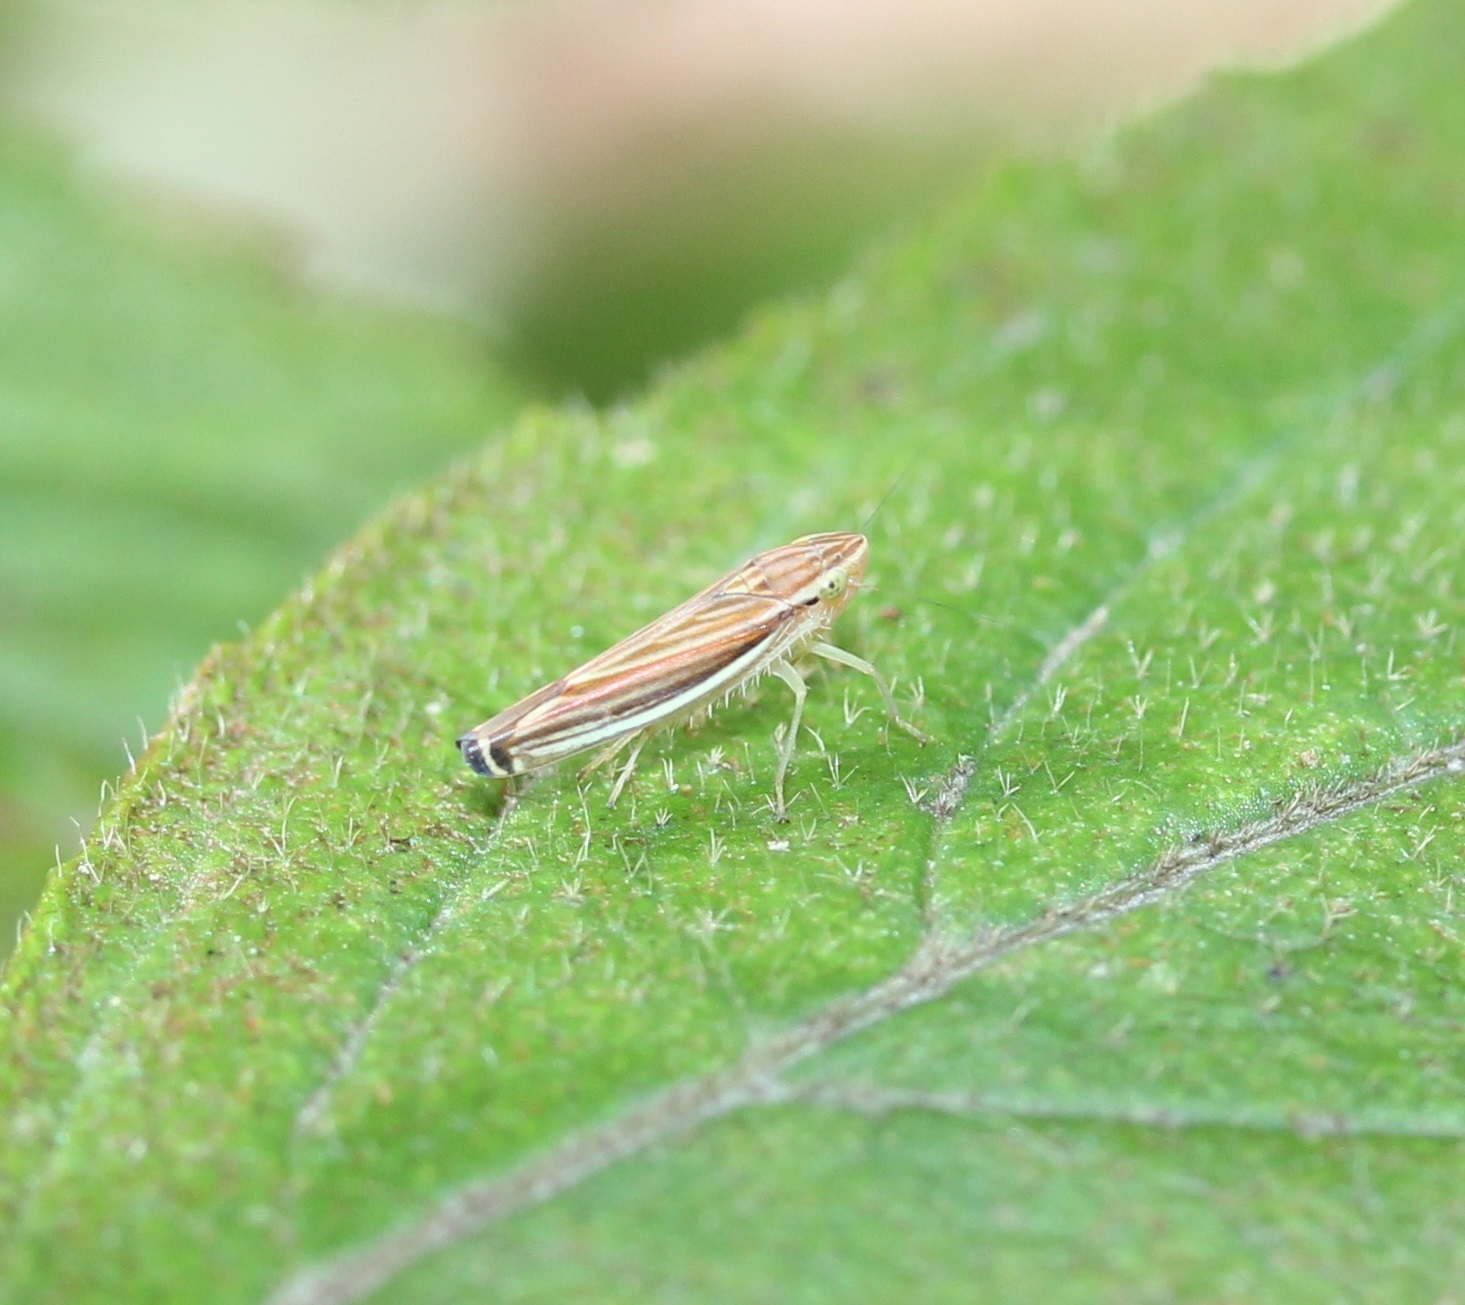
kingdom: Animalia
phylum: Arthropoda
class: Insecta
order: Hemiptera
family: Cicadellidae
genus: Sibovia
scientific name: Sibovia occatoria
